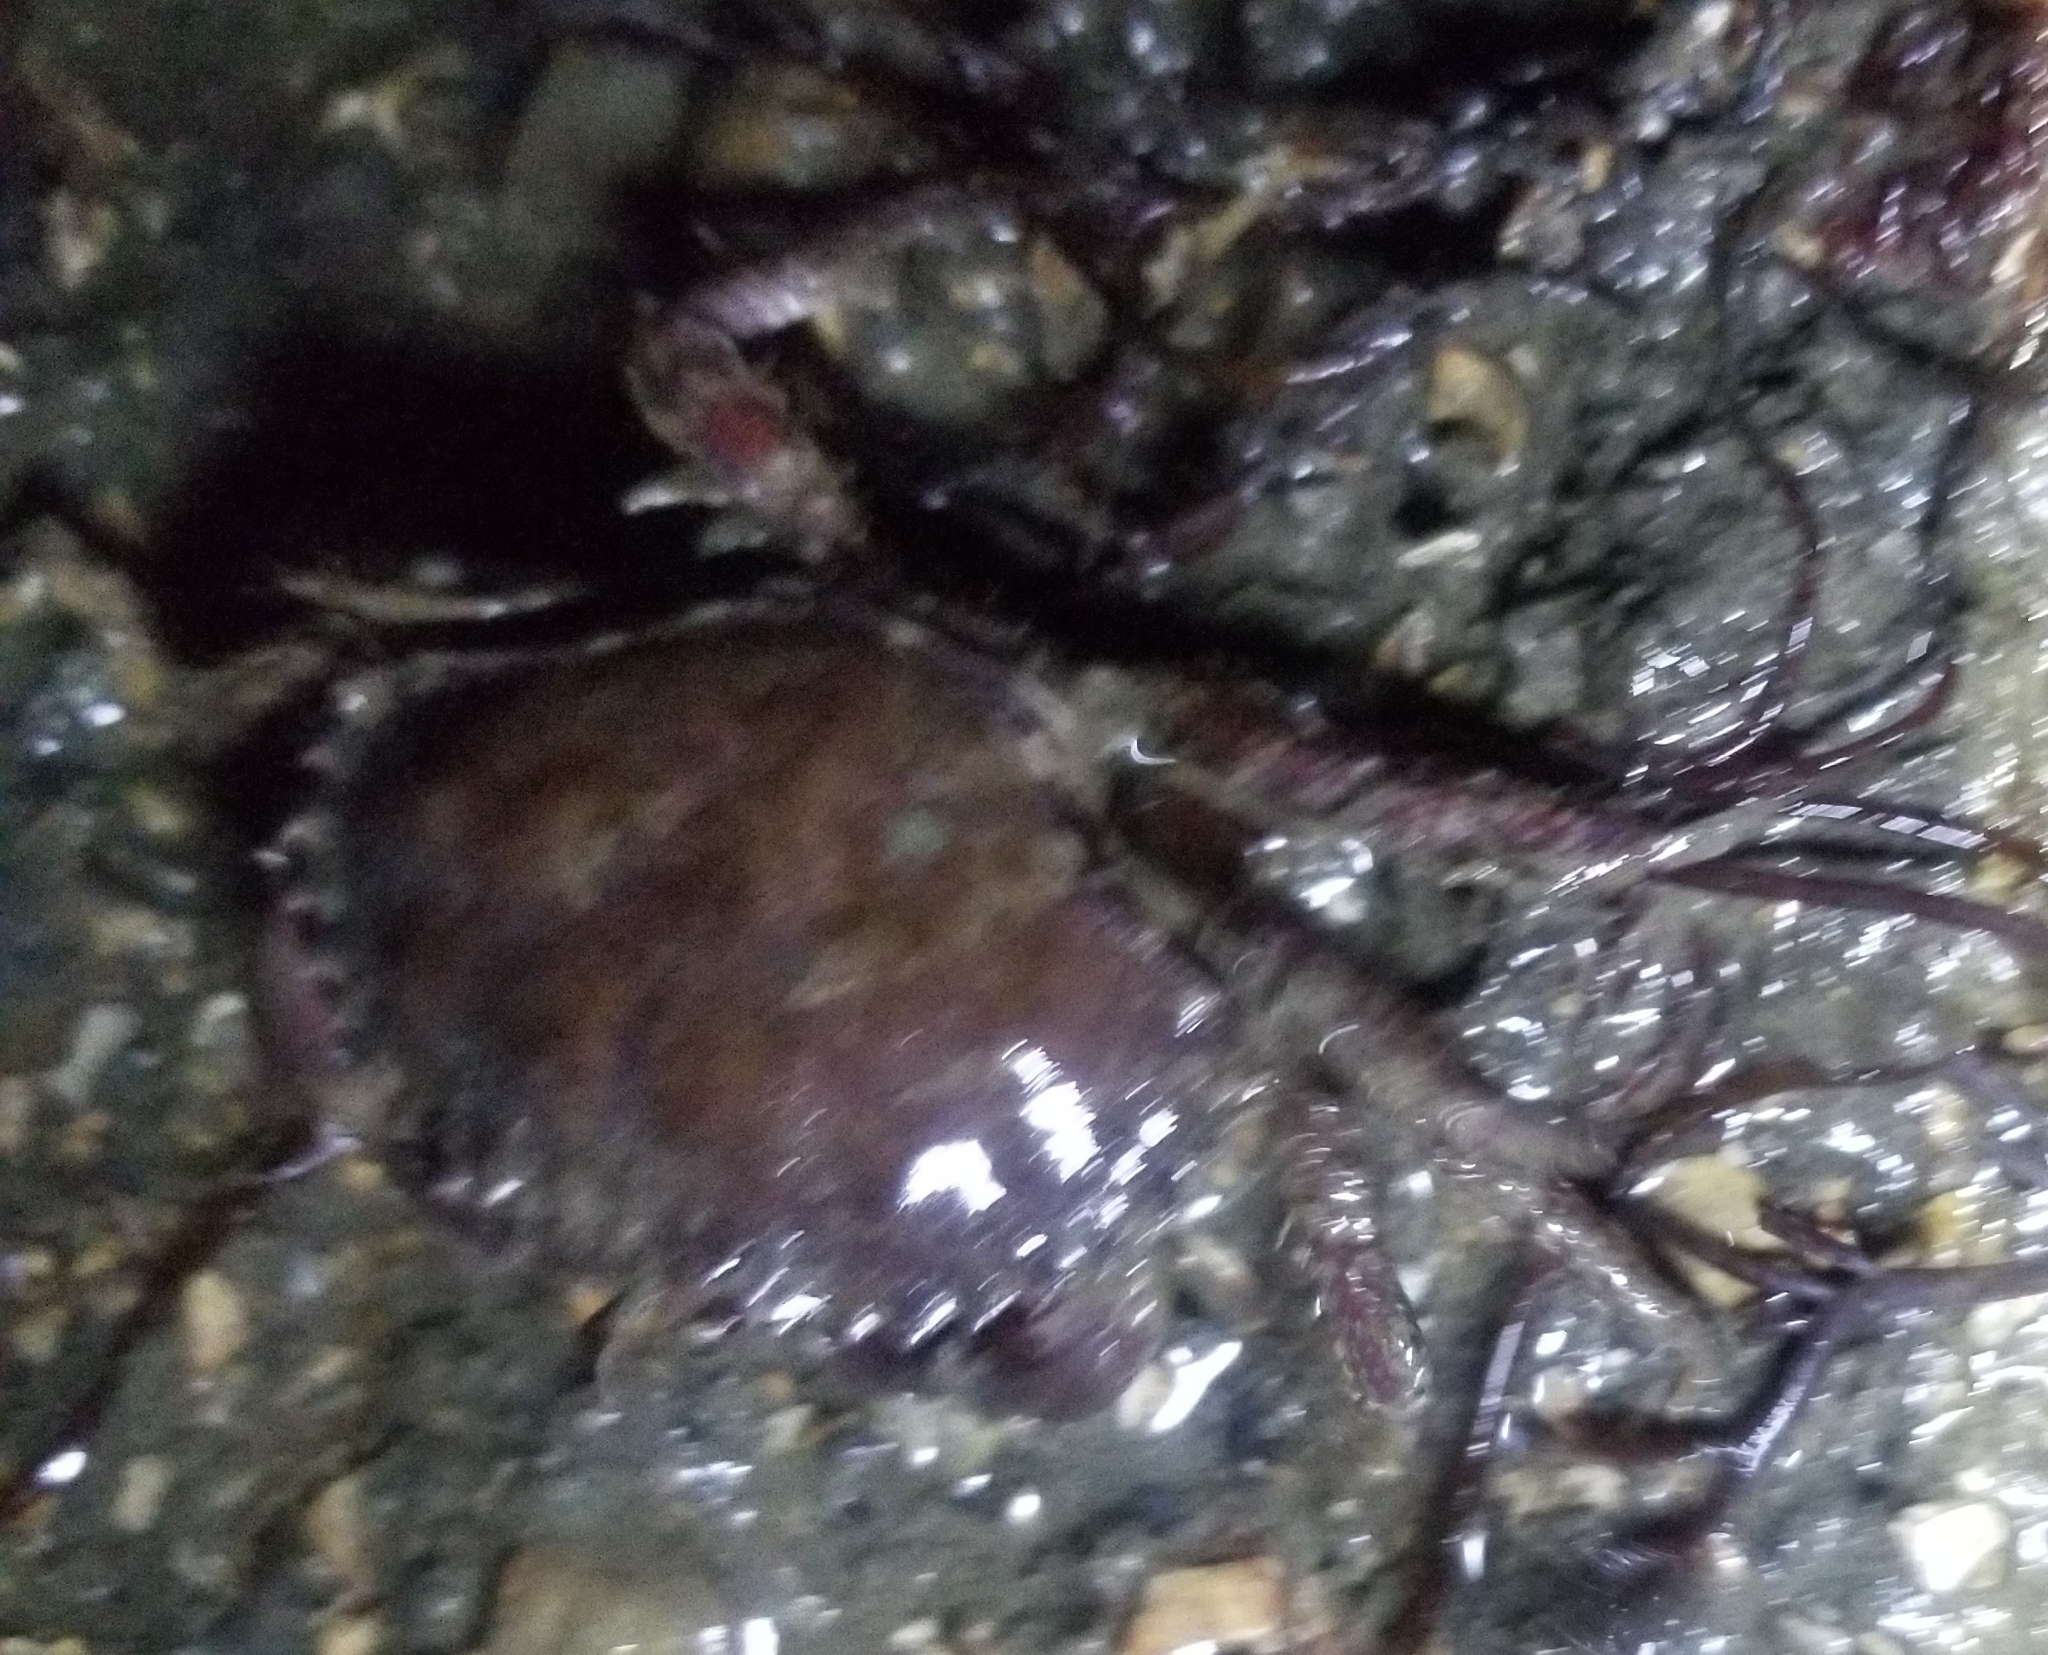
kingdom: Animalia
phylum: Arthropoda
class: Malacostraca
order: Decapoda
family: Cancridae
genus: Romaleon
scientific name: Romaleon antennarium
